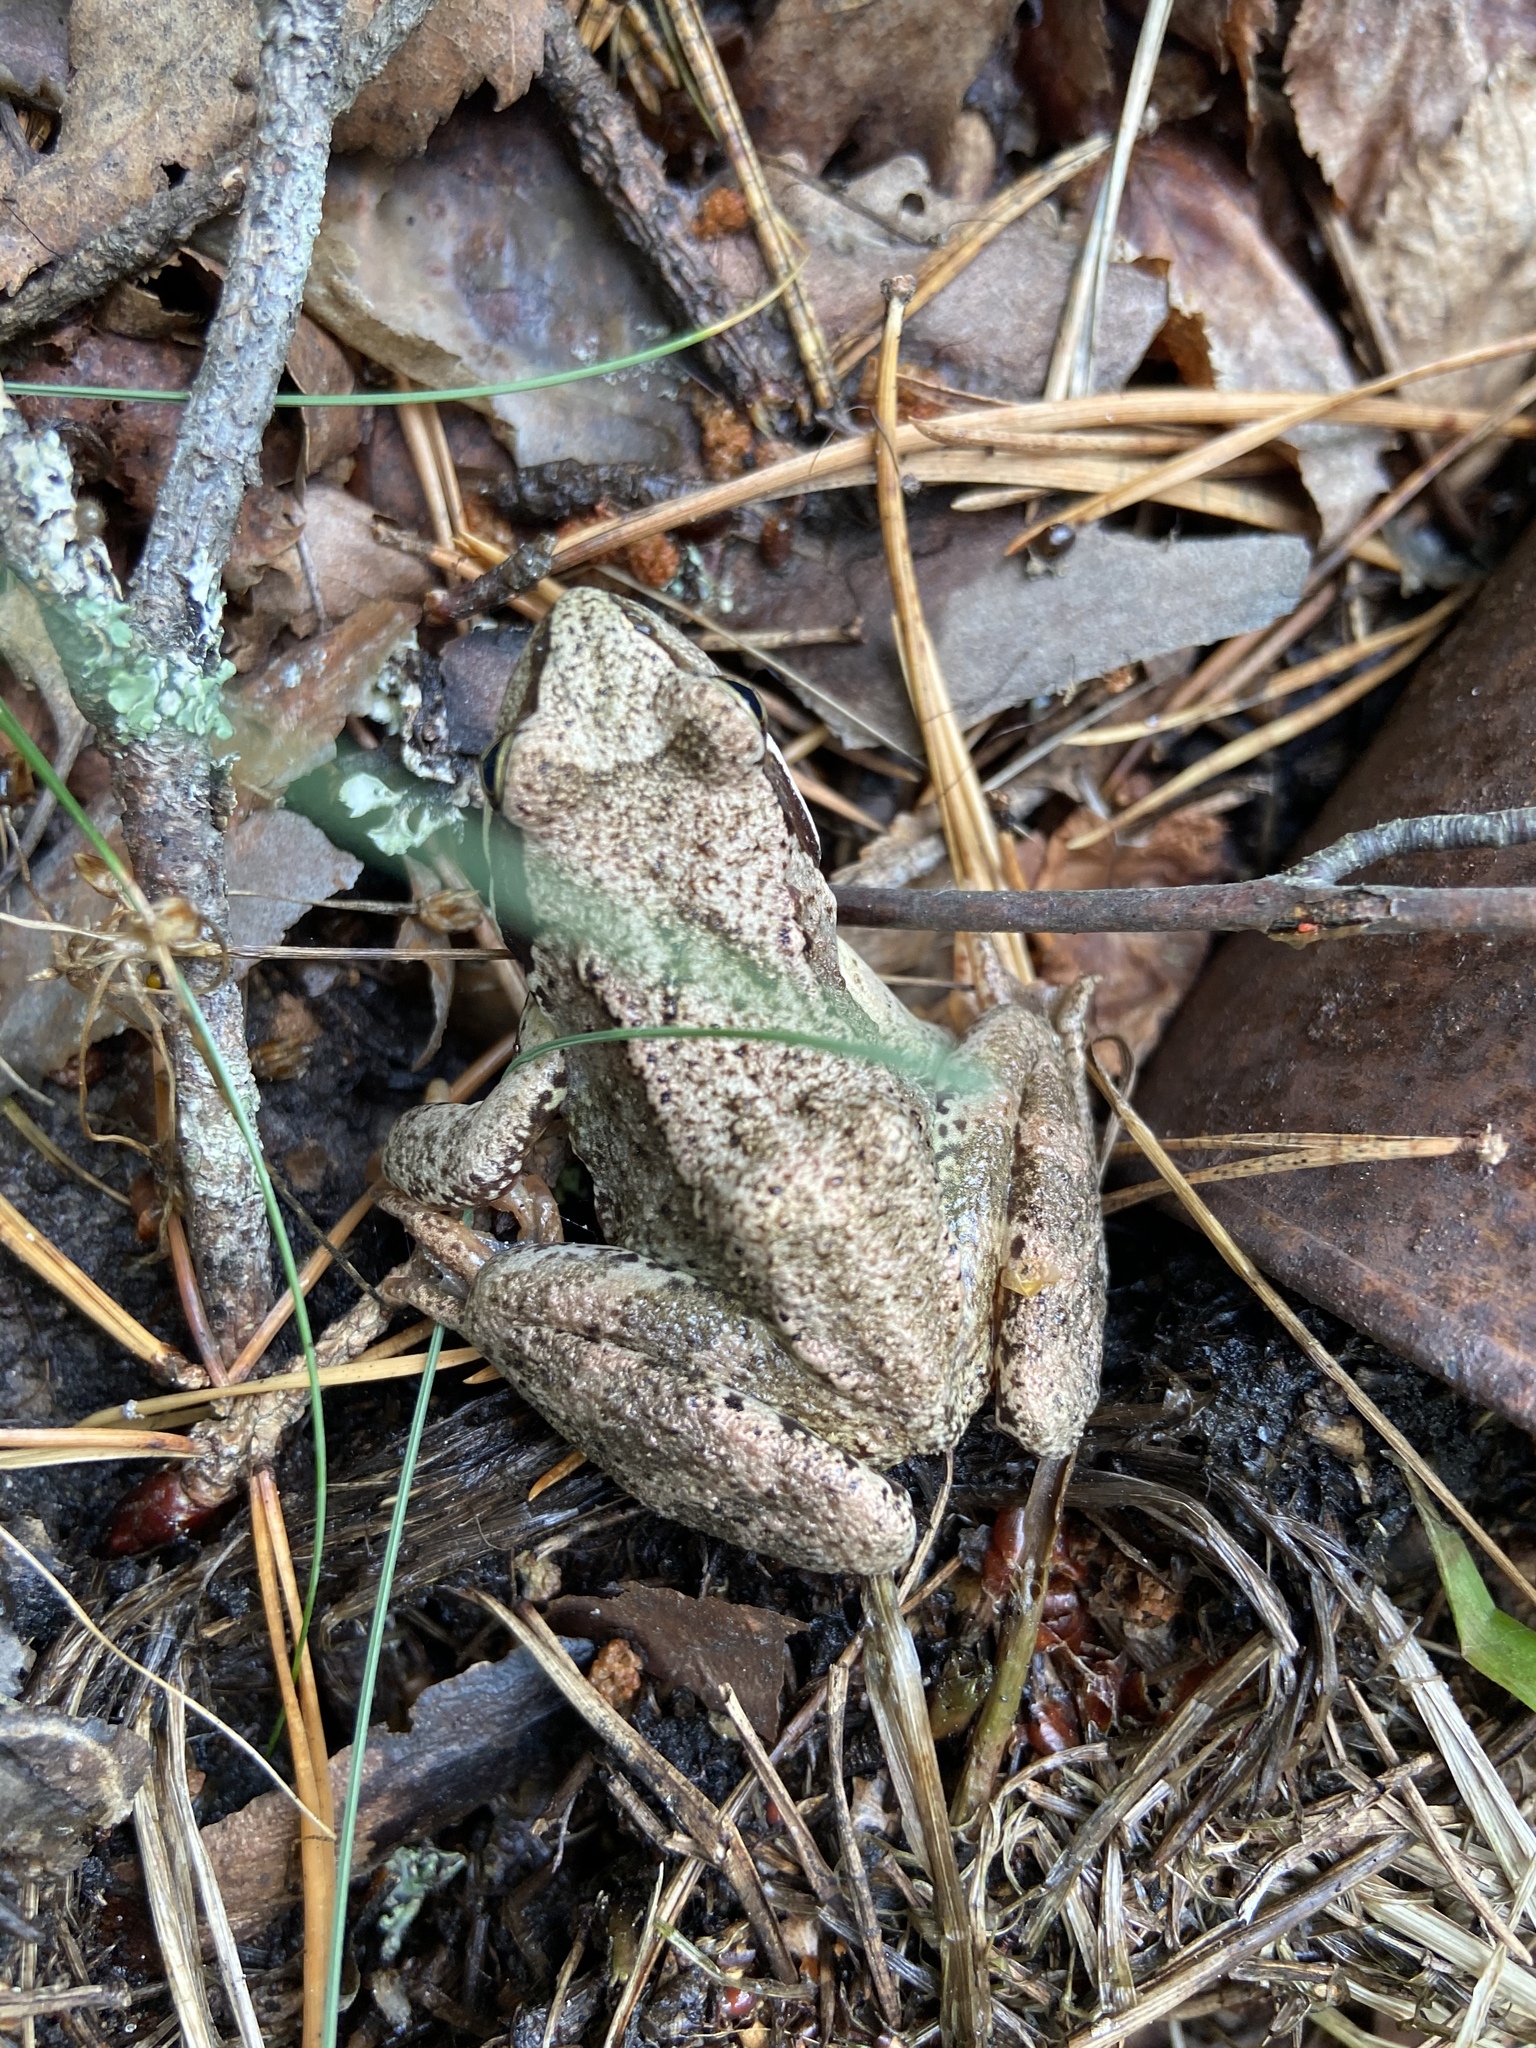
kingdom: Animalia
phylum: Chordata
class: Amphibia
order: Anura
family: Ranidae
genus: Rana
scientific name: Rana temporaria
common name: Common frog
